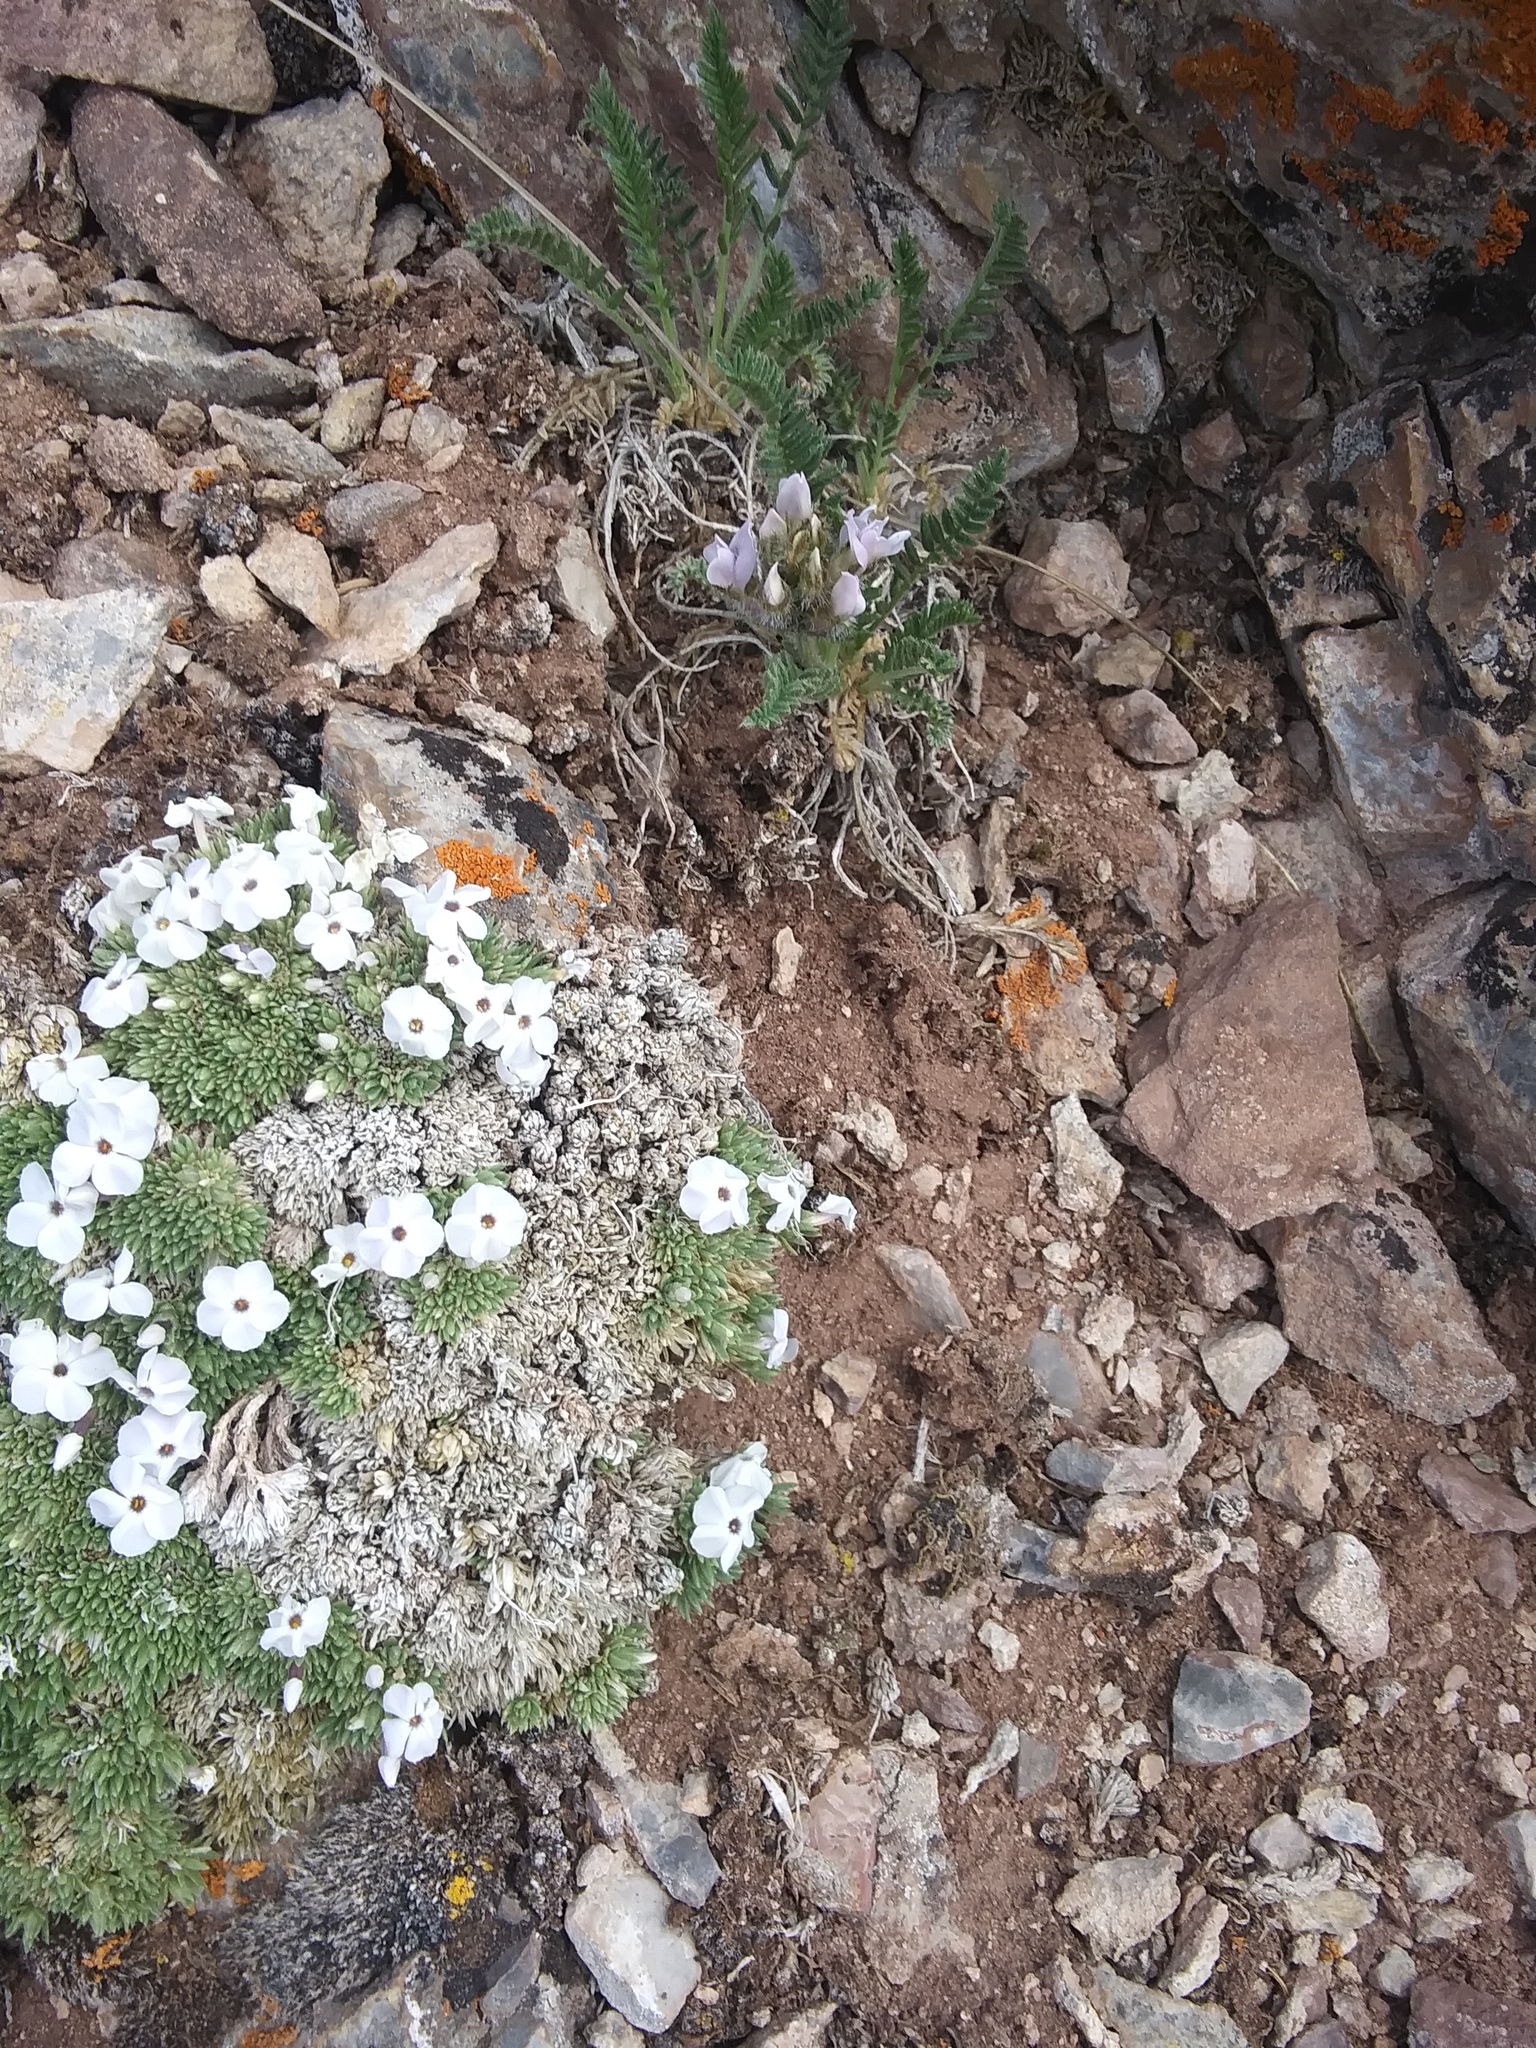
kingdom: Plantae
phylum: Tracheophyta
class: Magnoliopsida
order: Ericales
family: Polemoniaceae
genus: Phlox
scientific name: Phlox condensata
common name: Compact phlox
